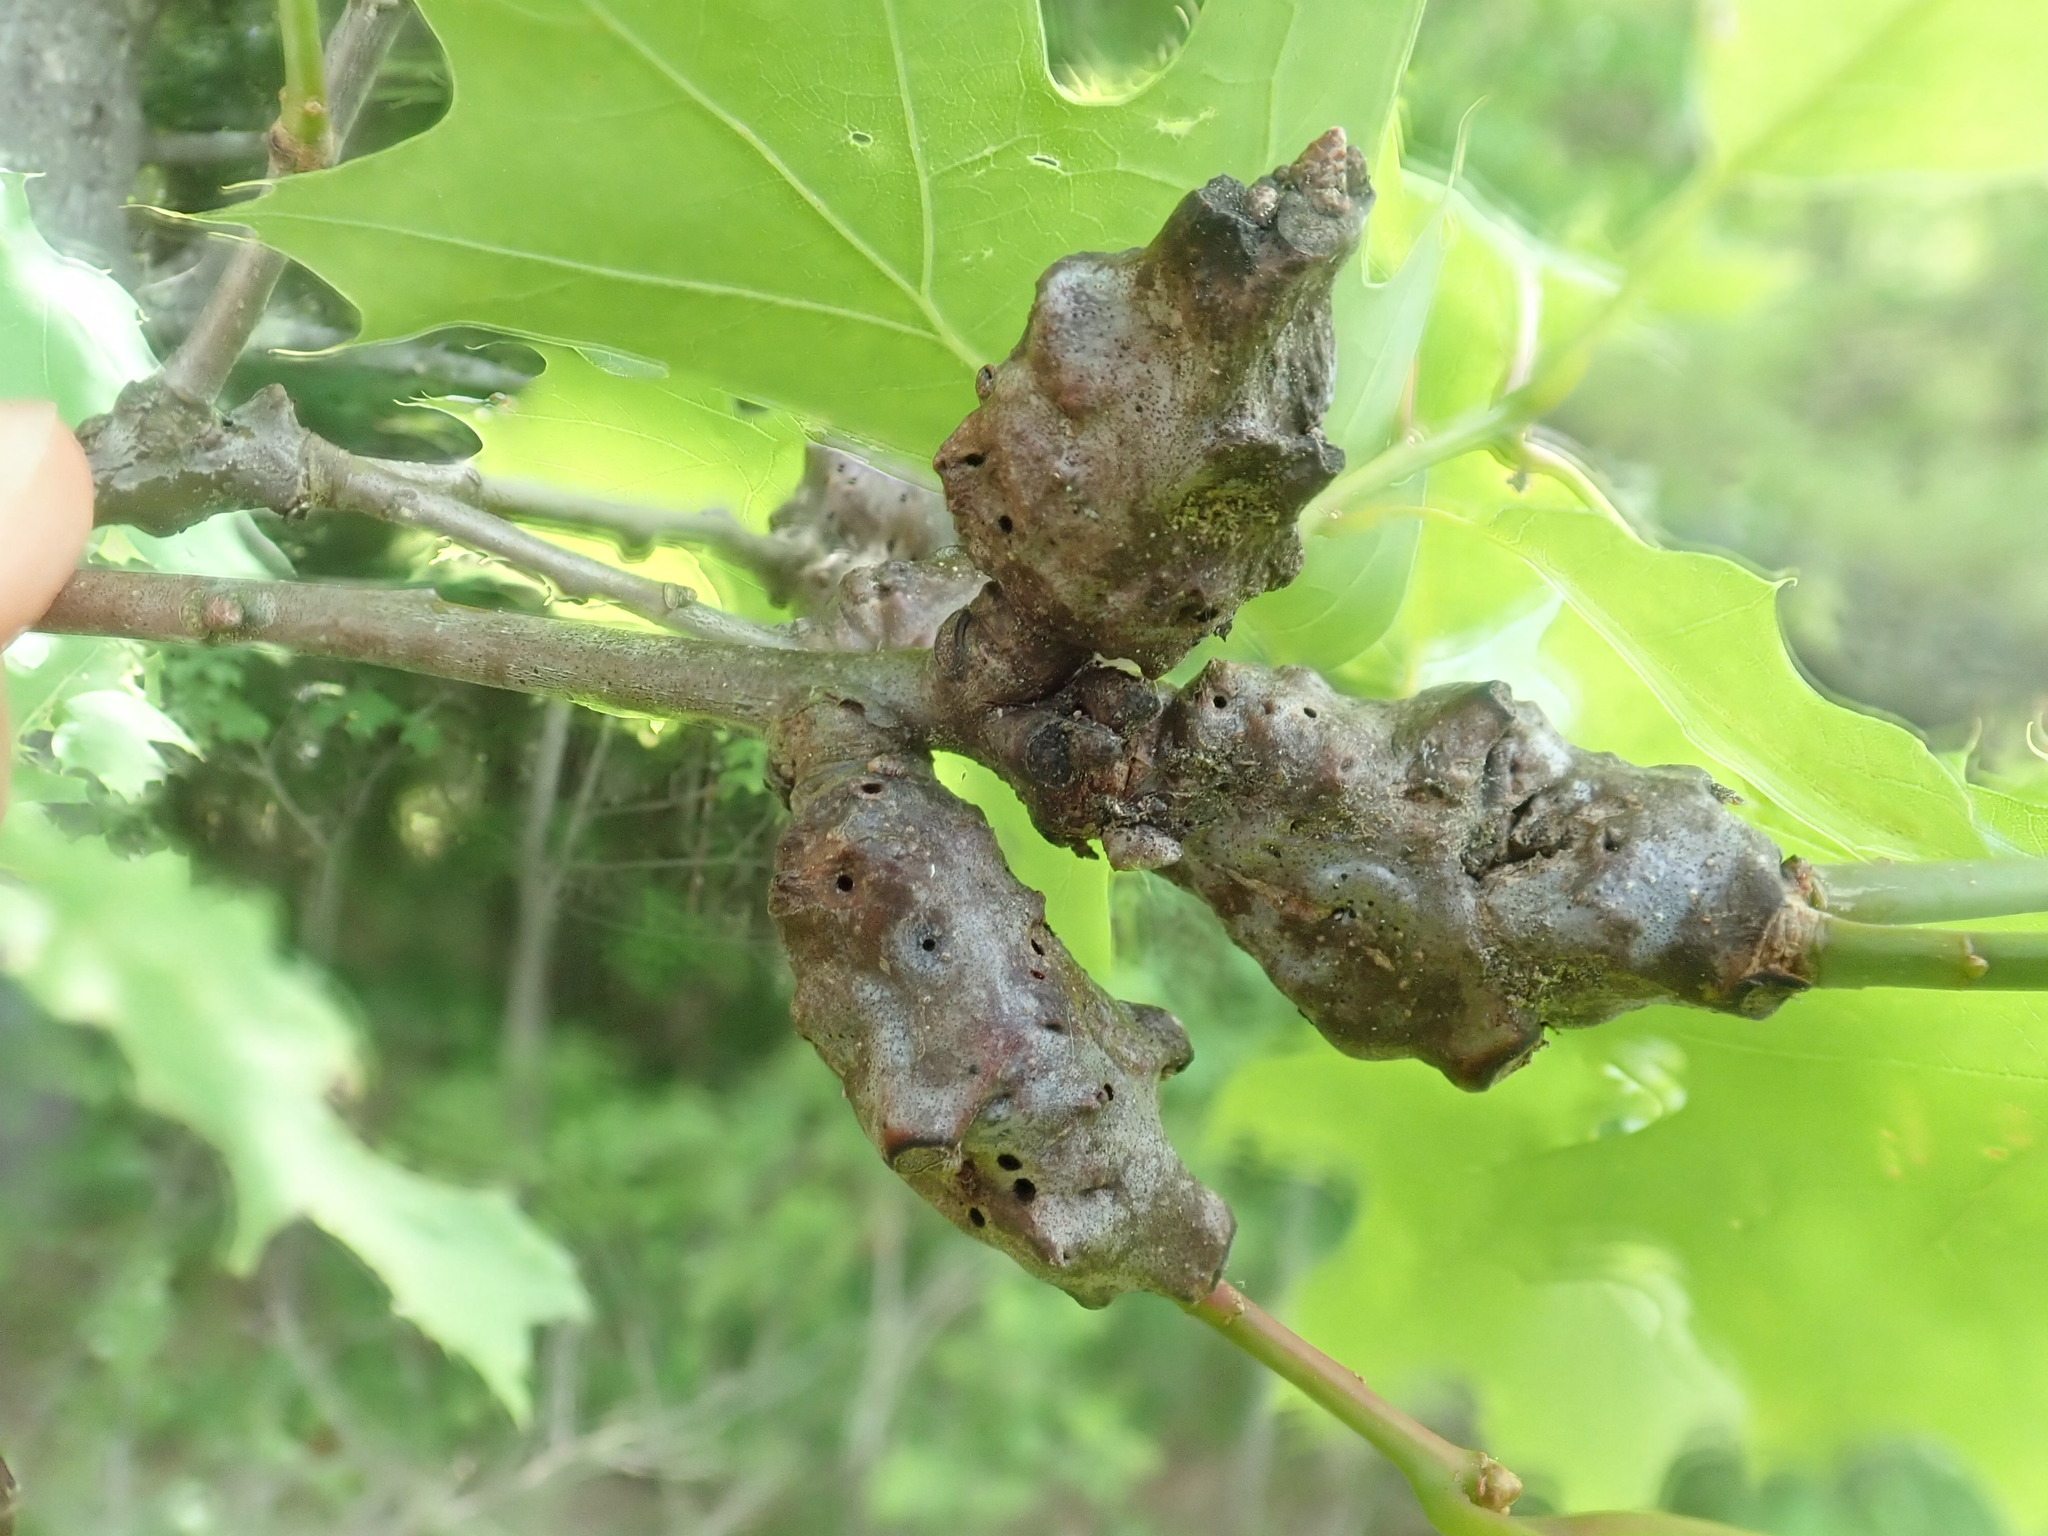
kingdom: Animalia
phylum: Arthropoda
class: Insecta
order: Hymenoptera
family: Cynipidae
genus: Callirhytis
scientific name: Callirhytis
